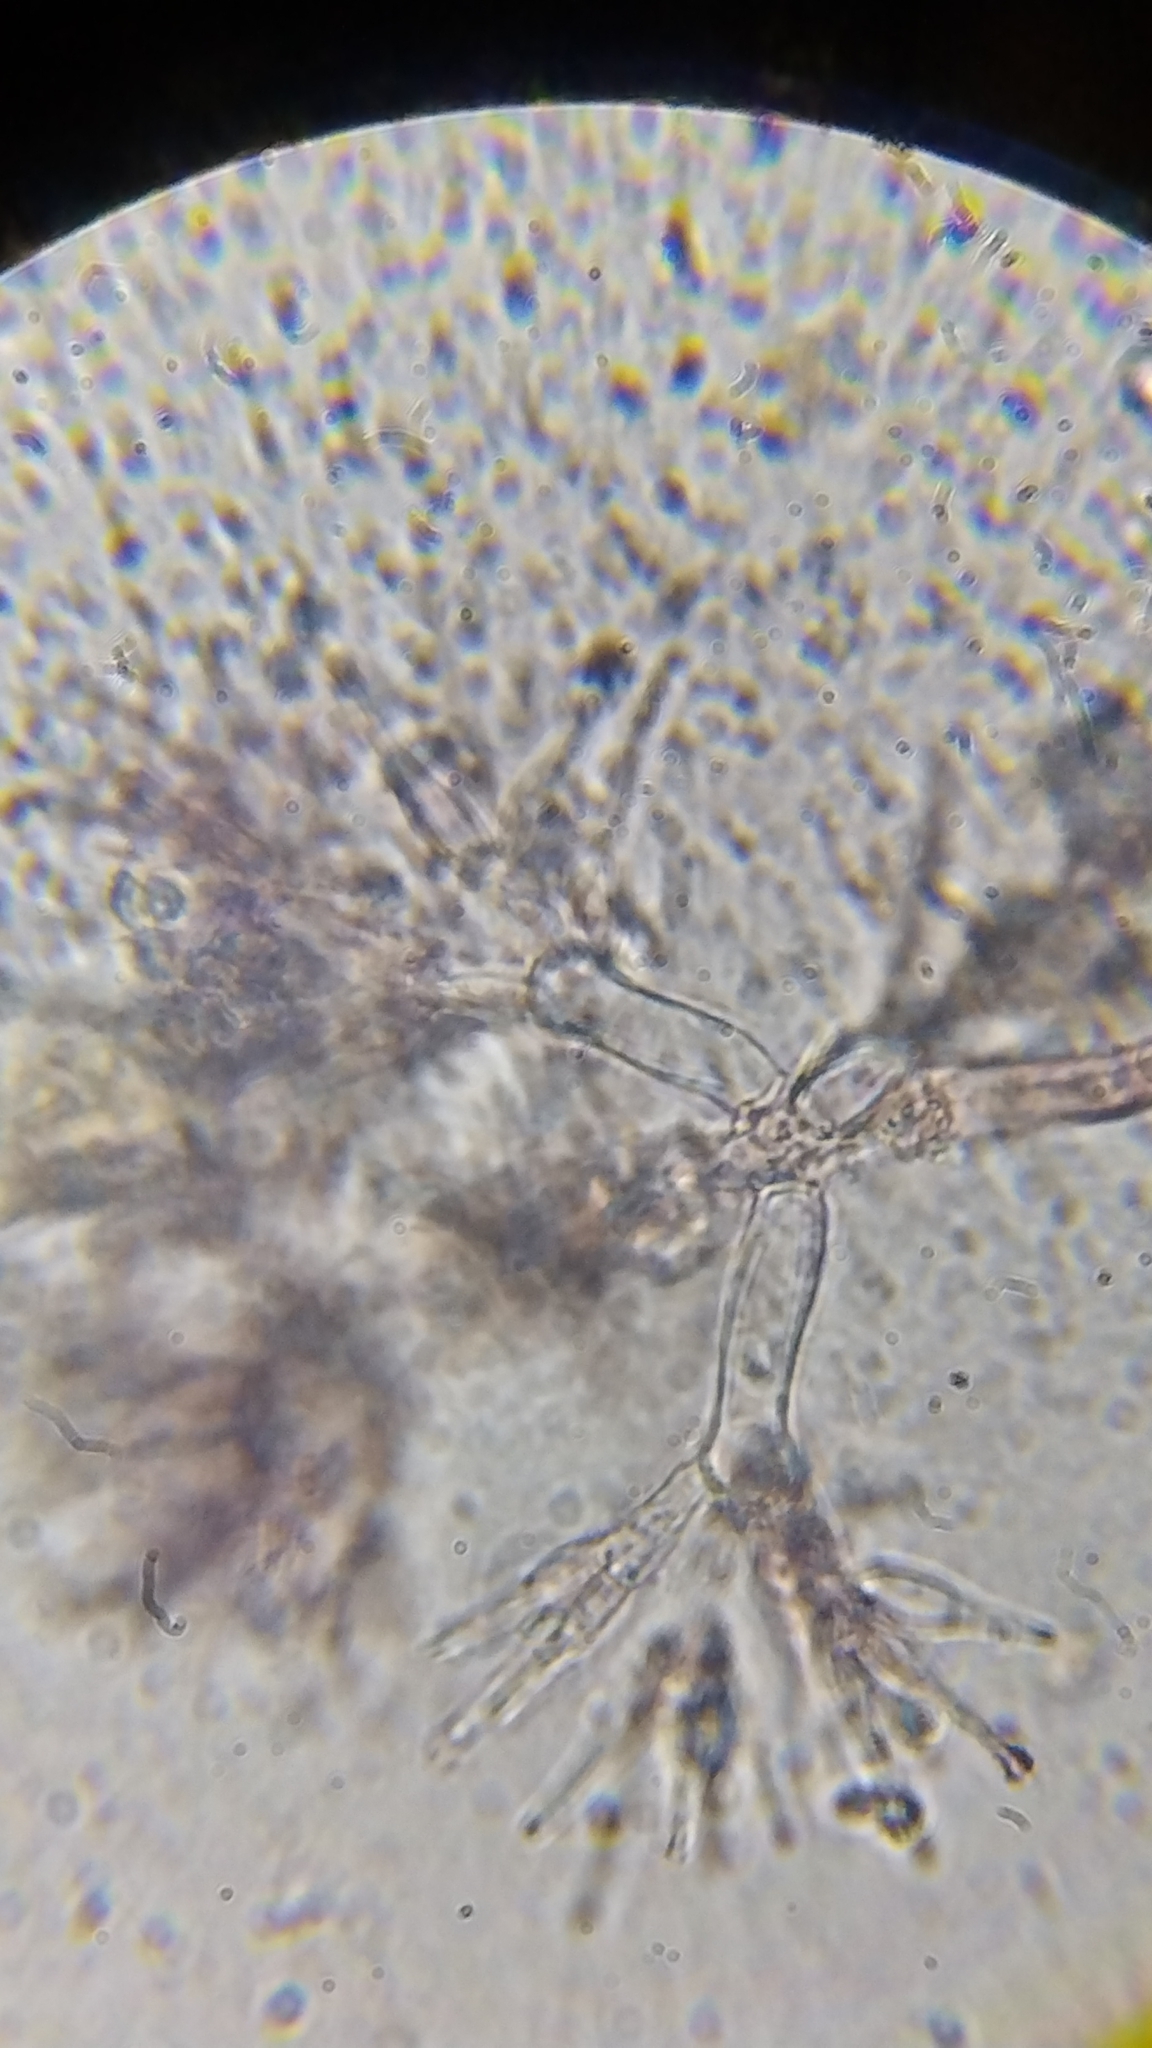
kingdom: Fungi
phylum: Ascomycota
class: Sordariomycetes
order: Hypocreales
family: Nectriaceae
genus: Mariannaea
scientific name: Mariannaea elegans
